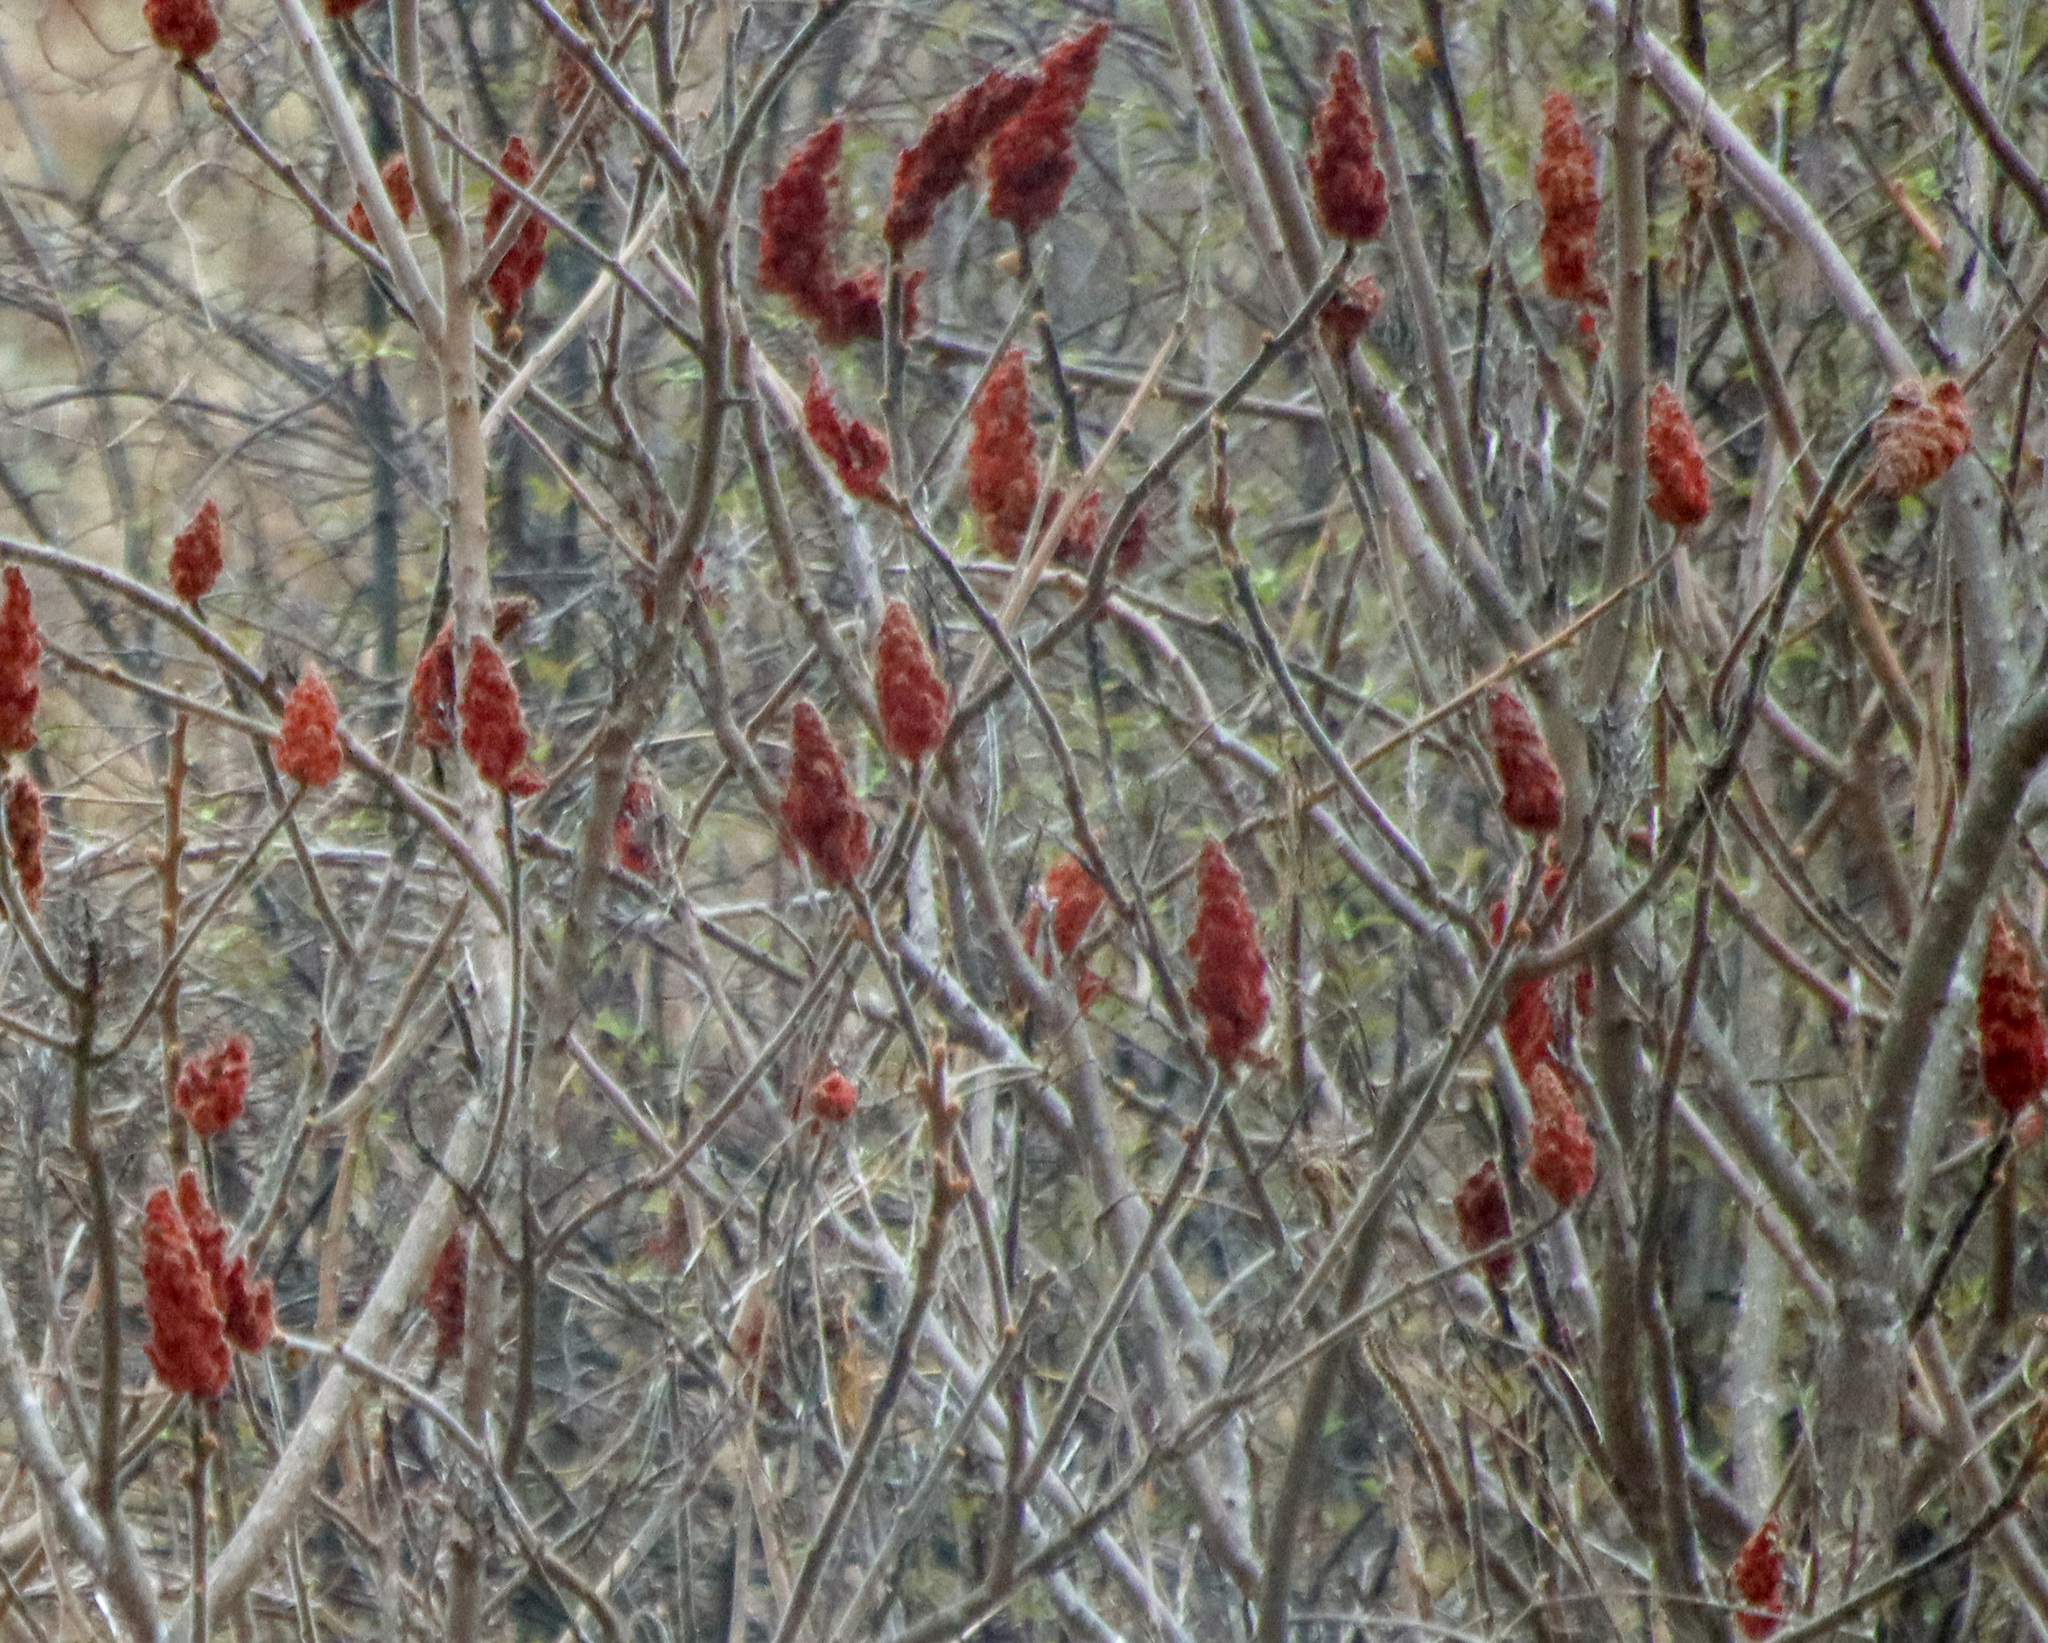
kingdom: Plantae
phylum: Tracheophyta
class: Magnoliopsida
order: Sapindales
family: Anacardiaceae
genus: Rhus
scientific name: Rhus typhina
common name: Staghorn sumac
